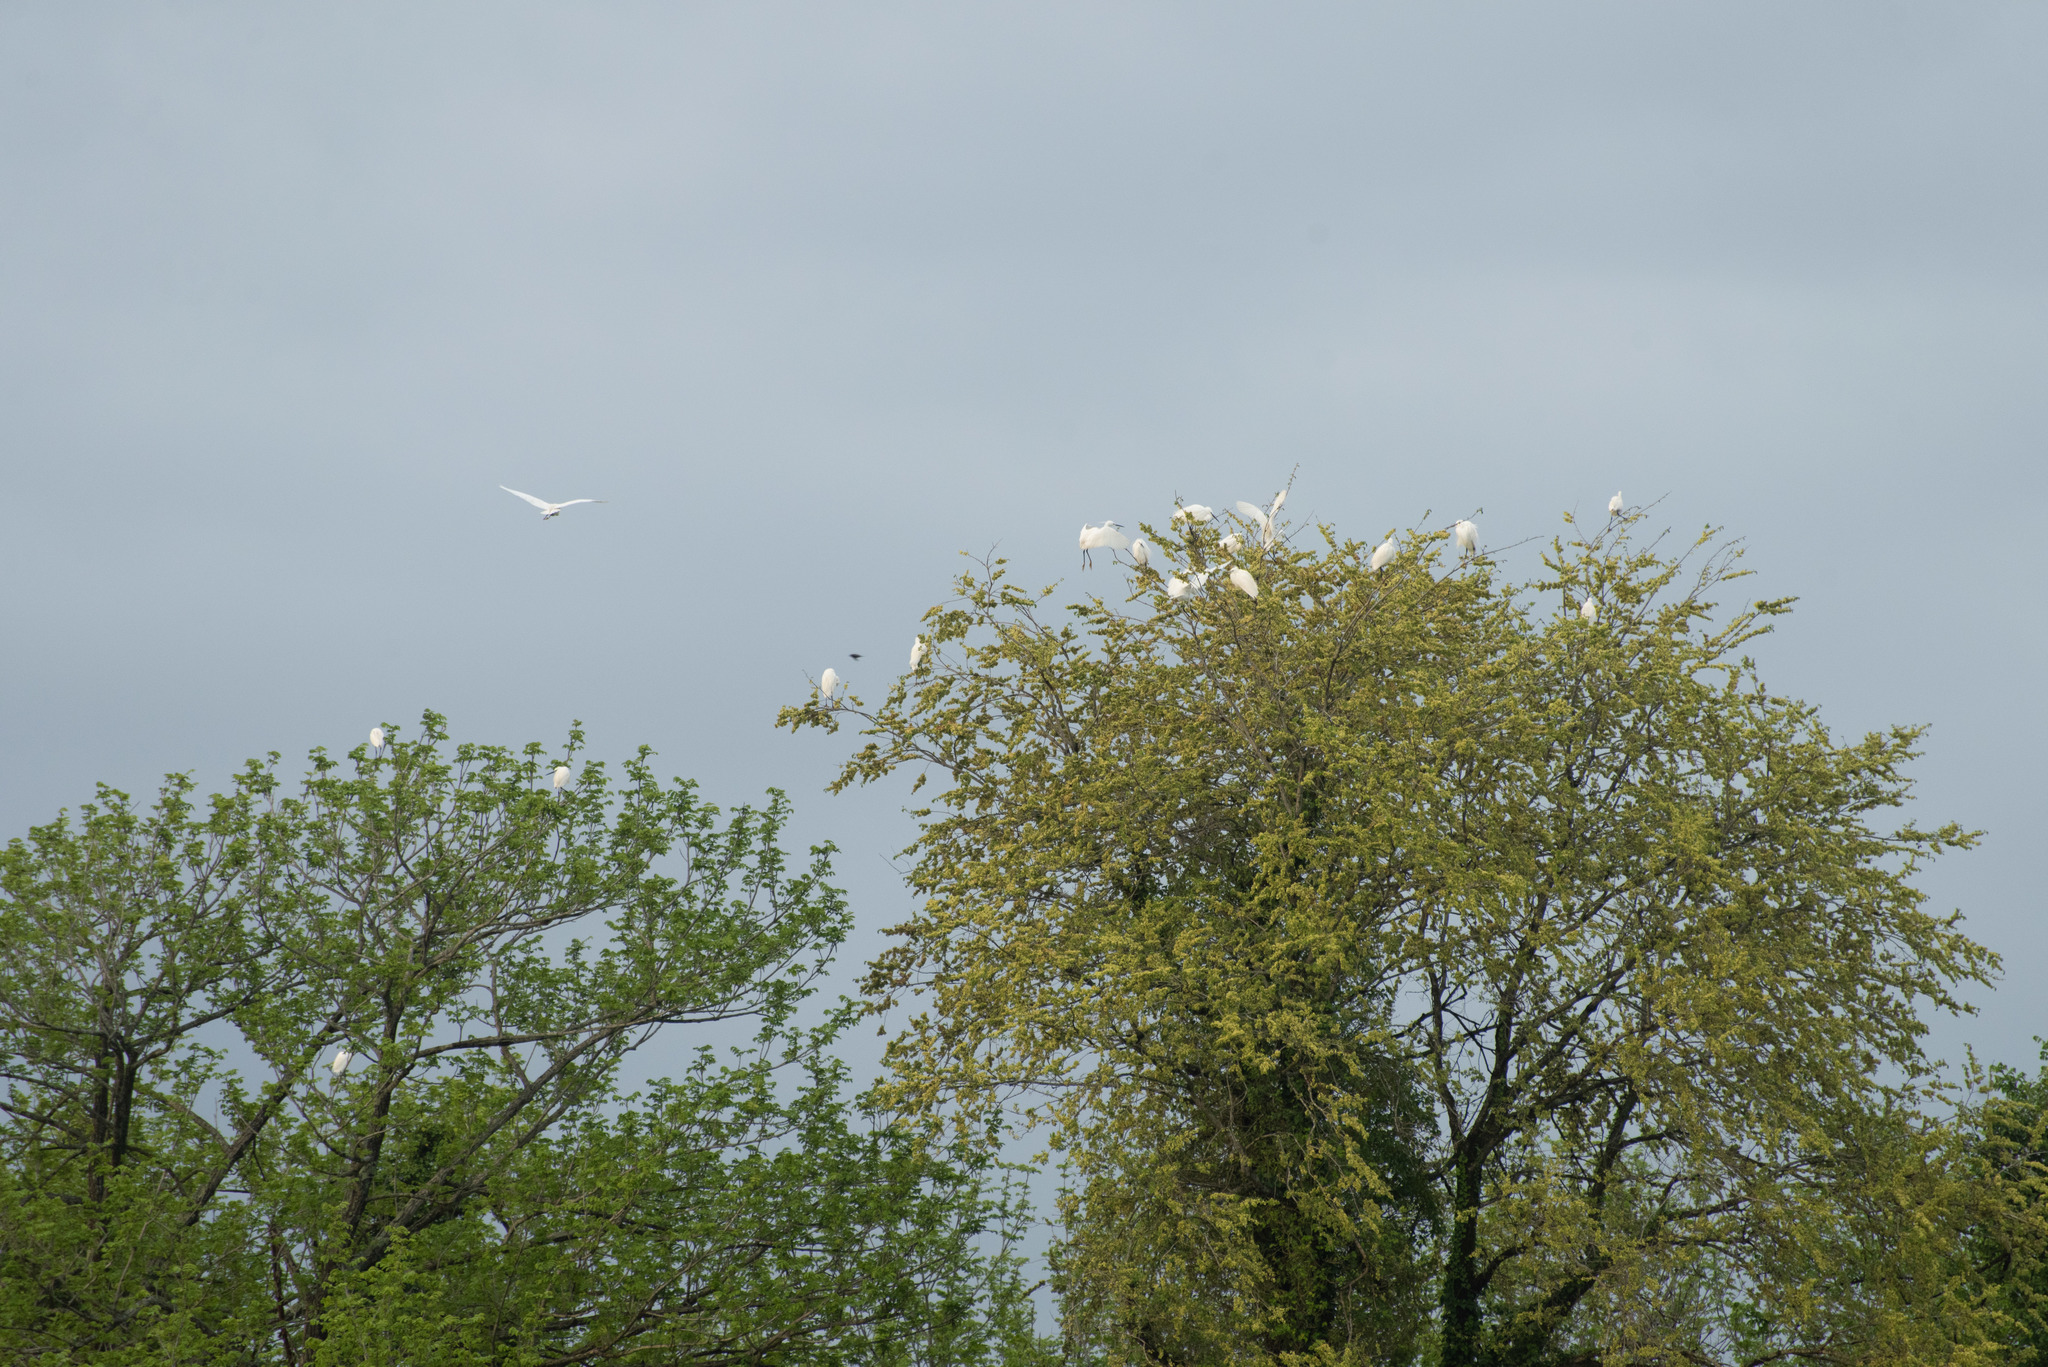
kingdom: Animalia
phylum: Chordata
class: Aves
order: Pelecaniformes
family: Ardeidae
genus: Egretta
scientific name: Egretta garzetta
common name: Little egret
